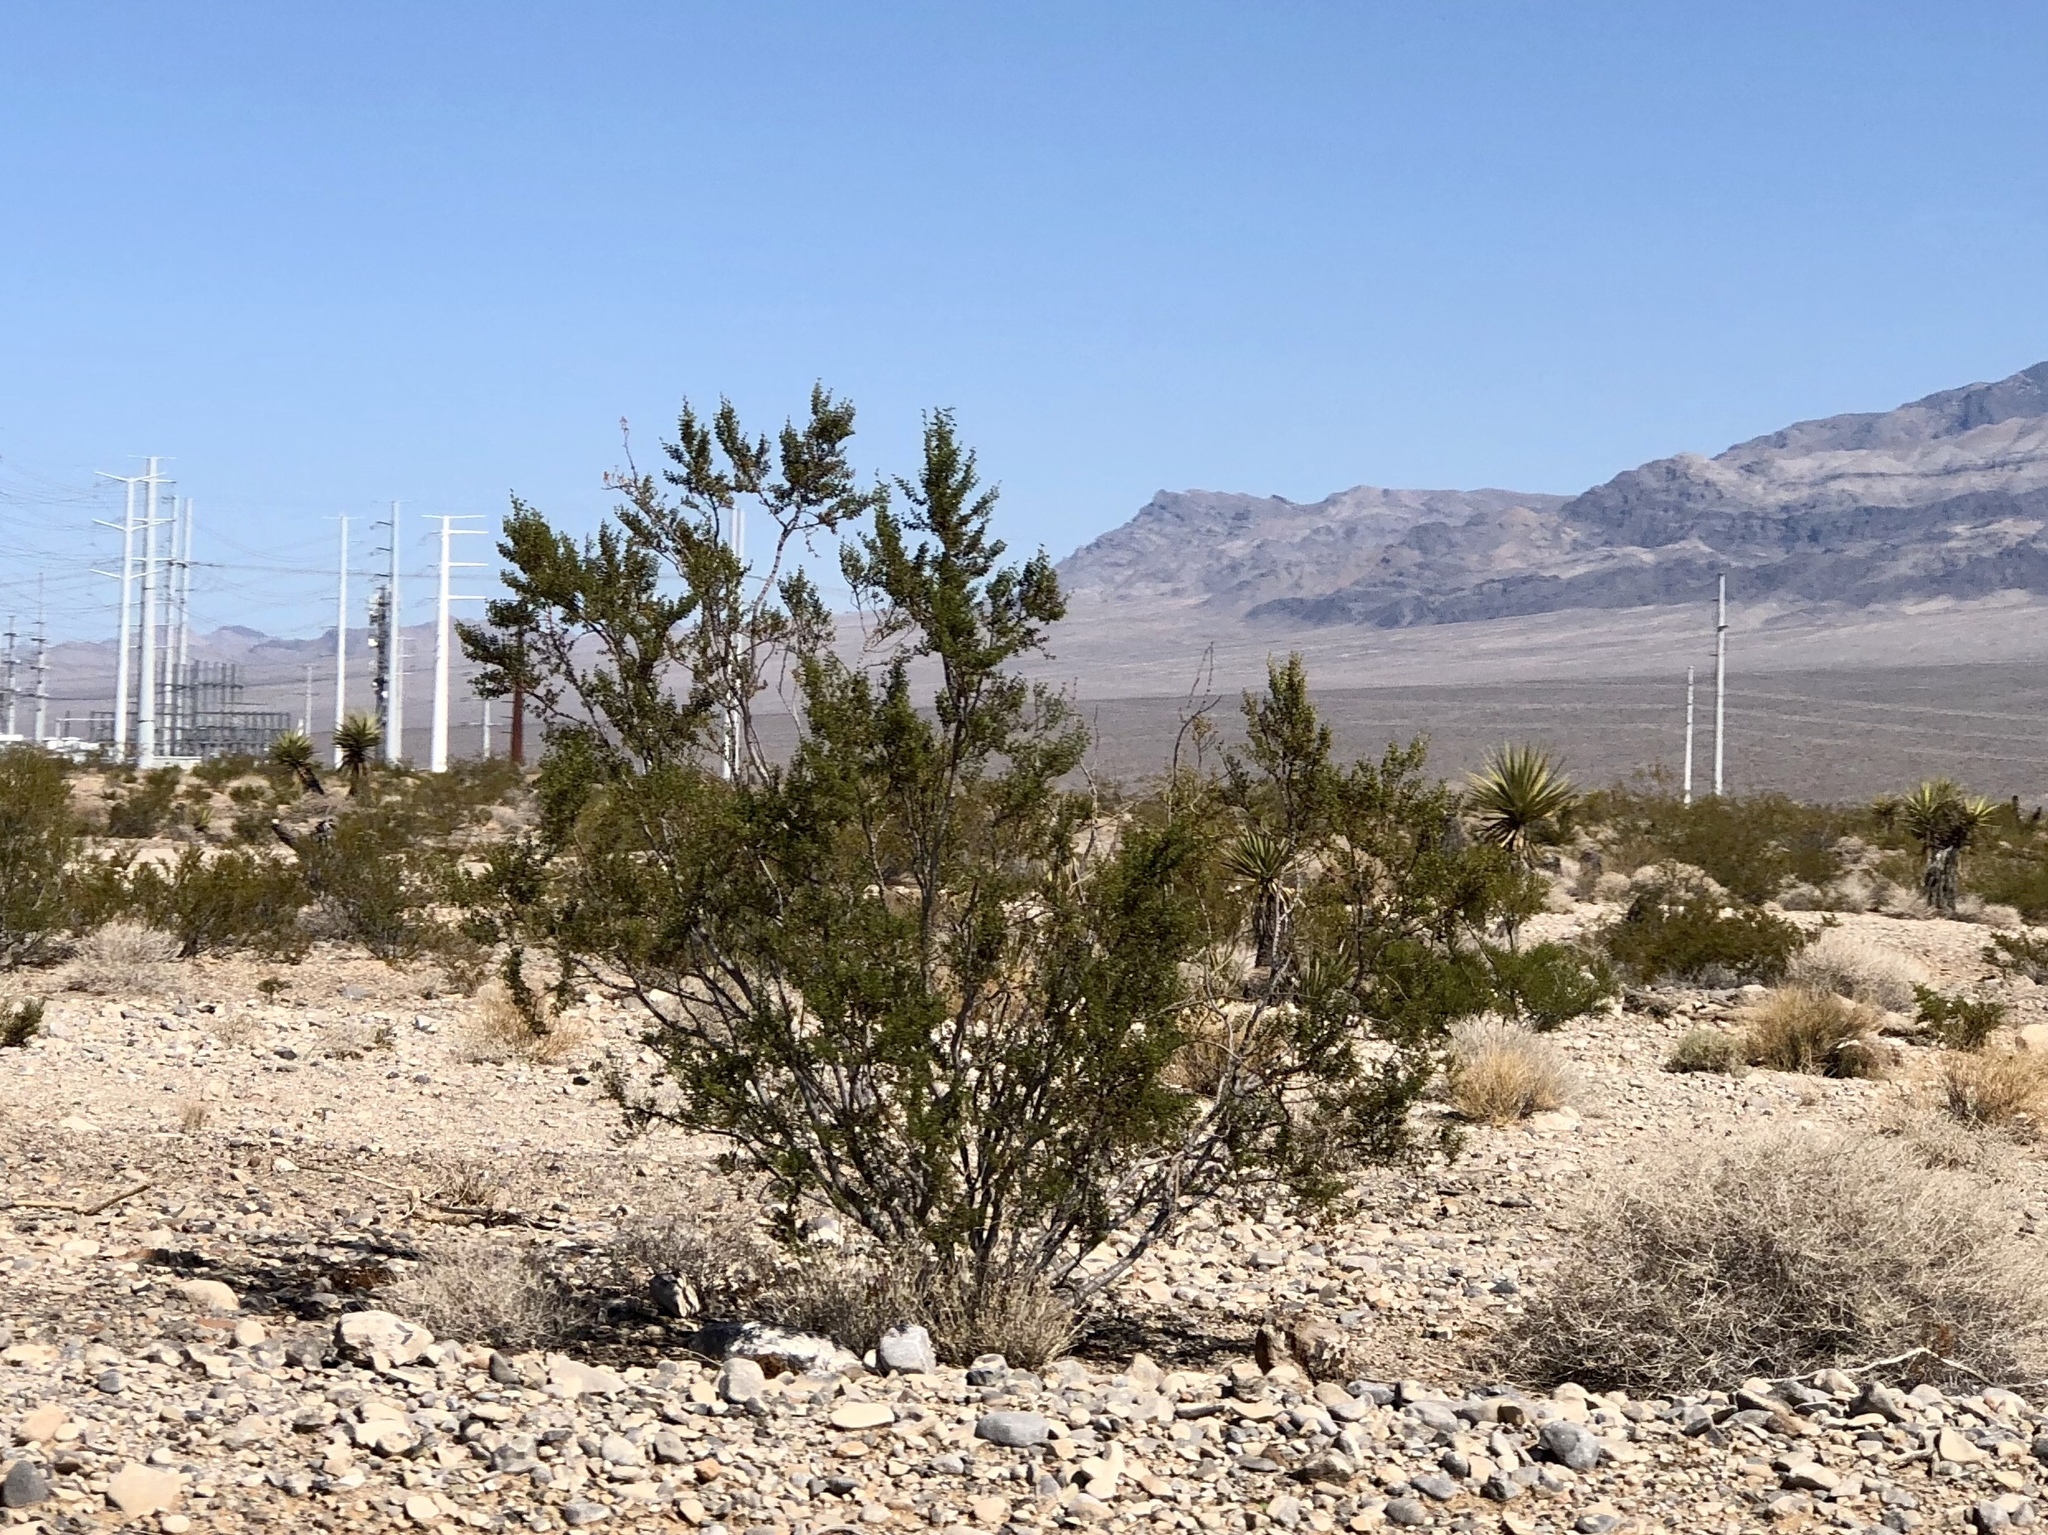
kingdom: Plantae
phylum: Tracheophyta
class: Magnoliopsida
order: Zygophyllales
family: Zygophyllaceae
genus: Larrea
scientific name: Larrea tridentata
